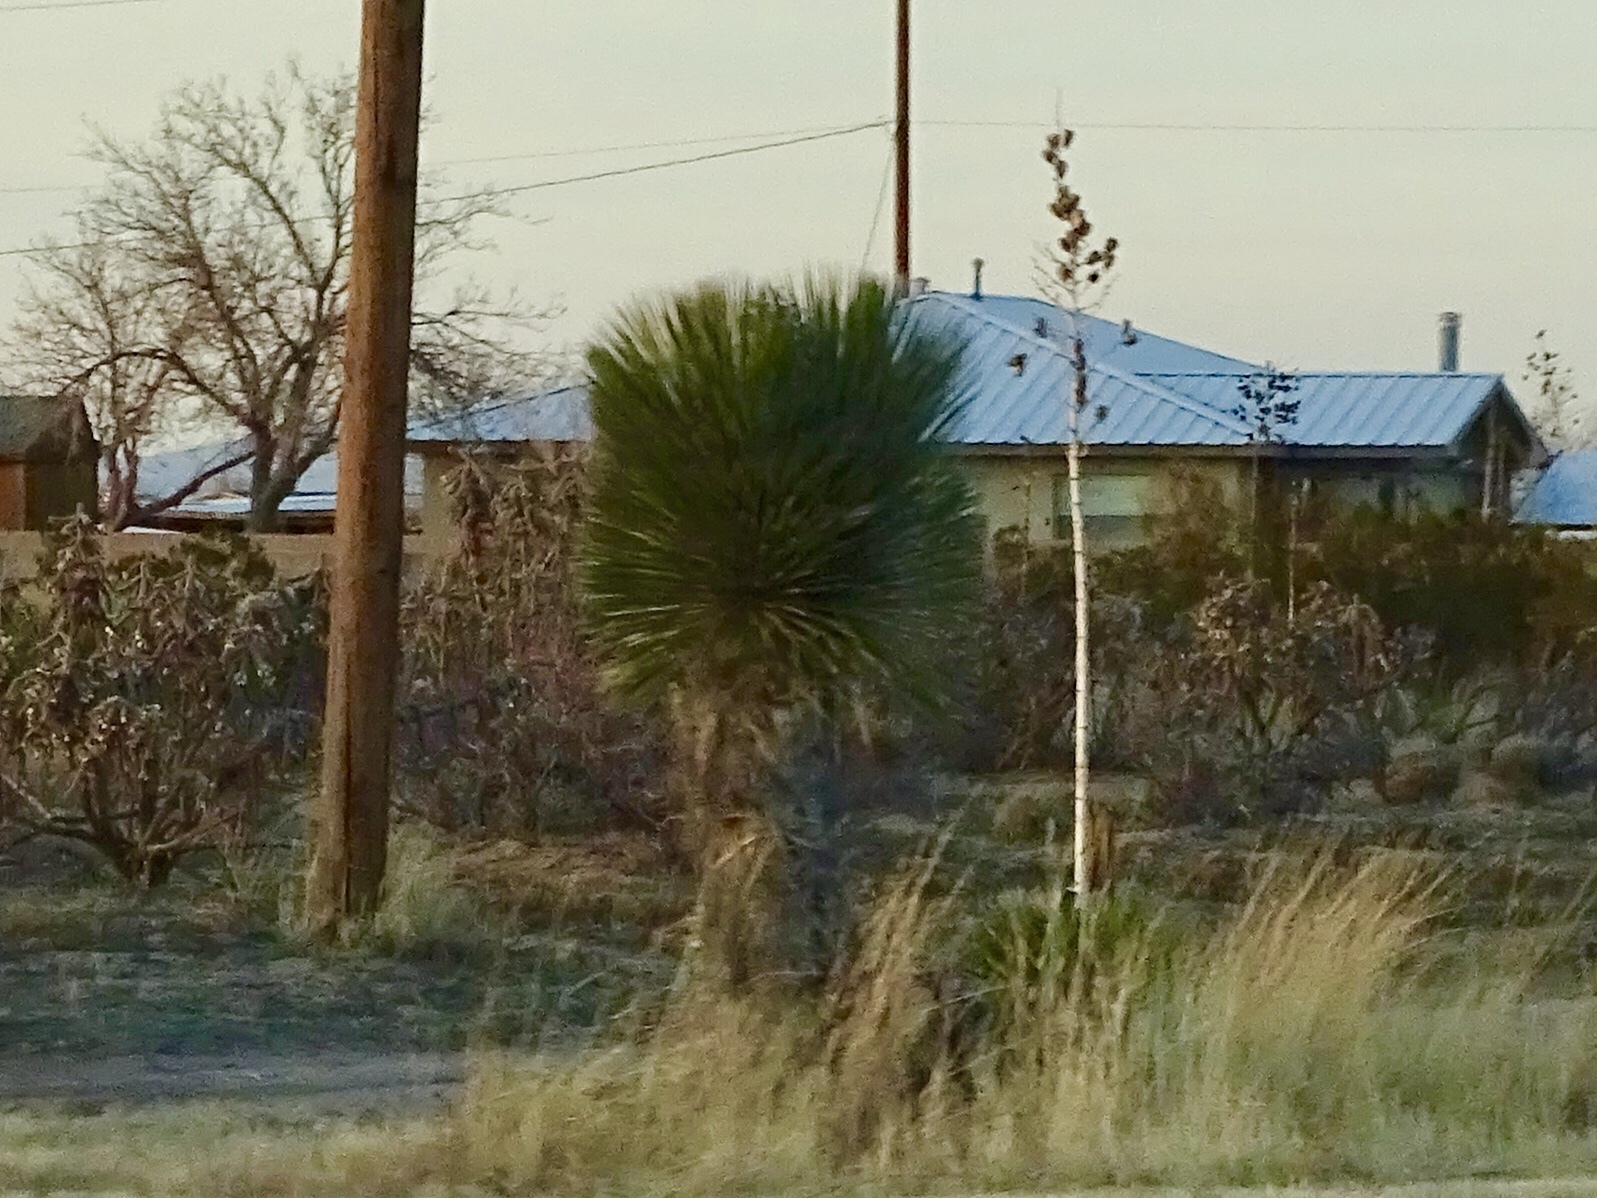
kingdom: Plantae
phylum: Tracheophyta
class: Liliopsida
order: Asparagales
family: Asparagaceae
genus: Yucca
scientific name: Yucca elata
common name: Palmella
